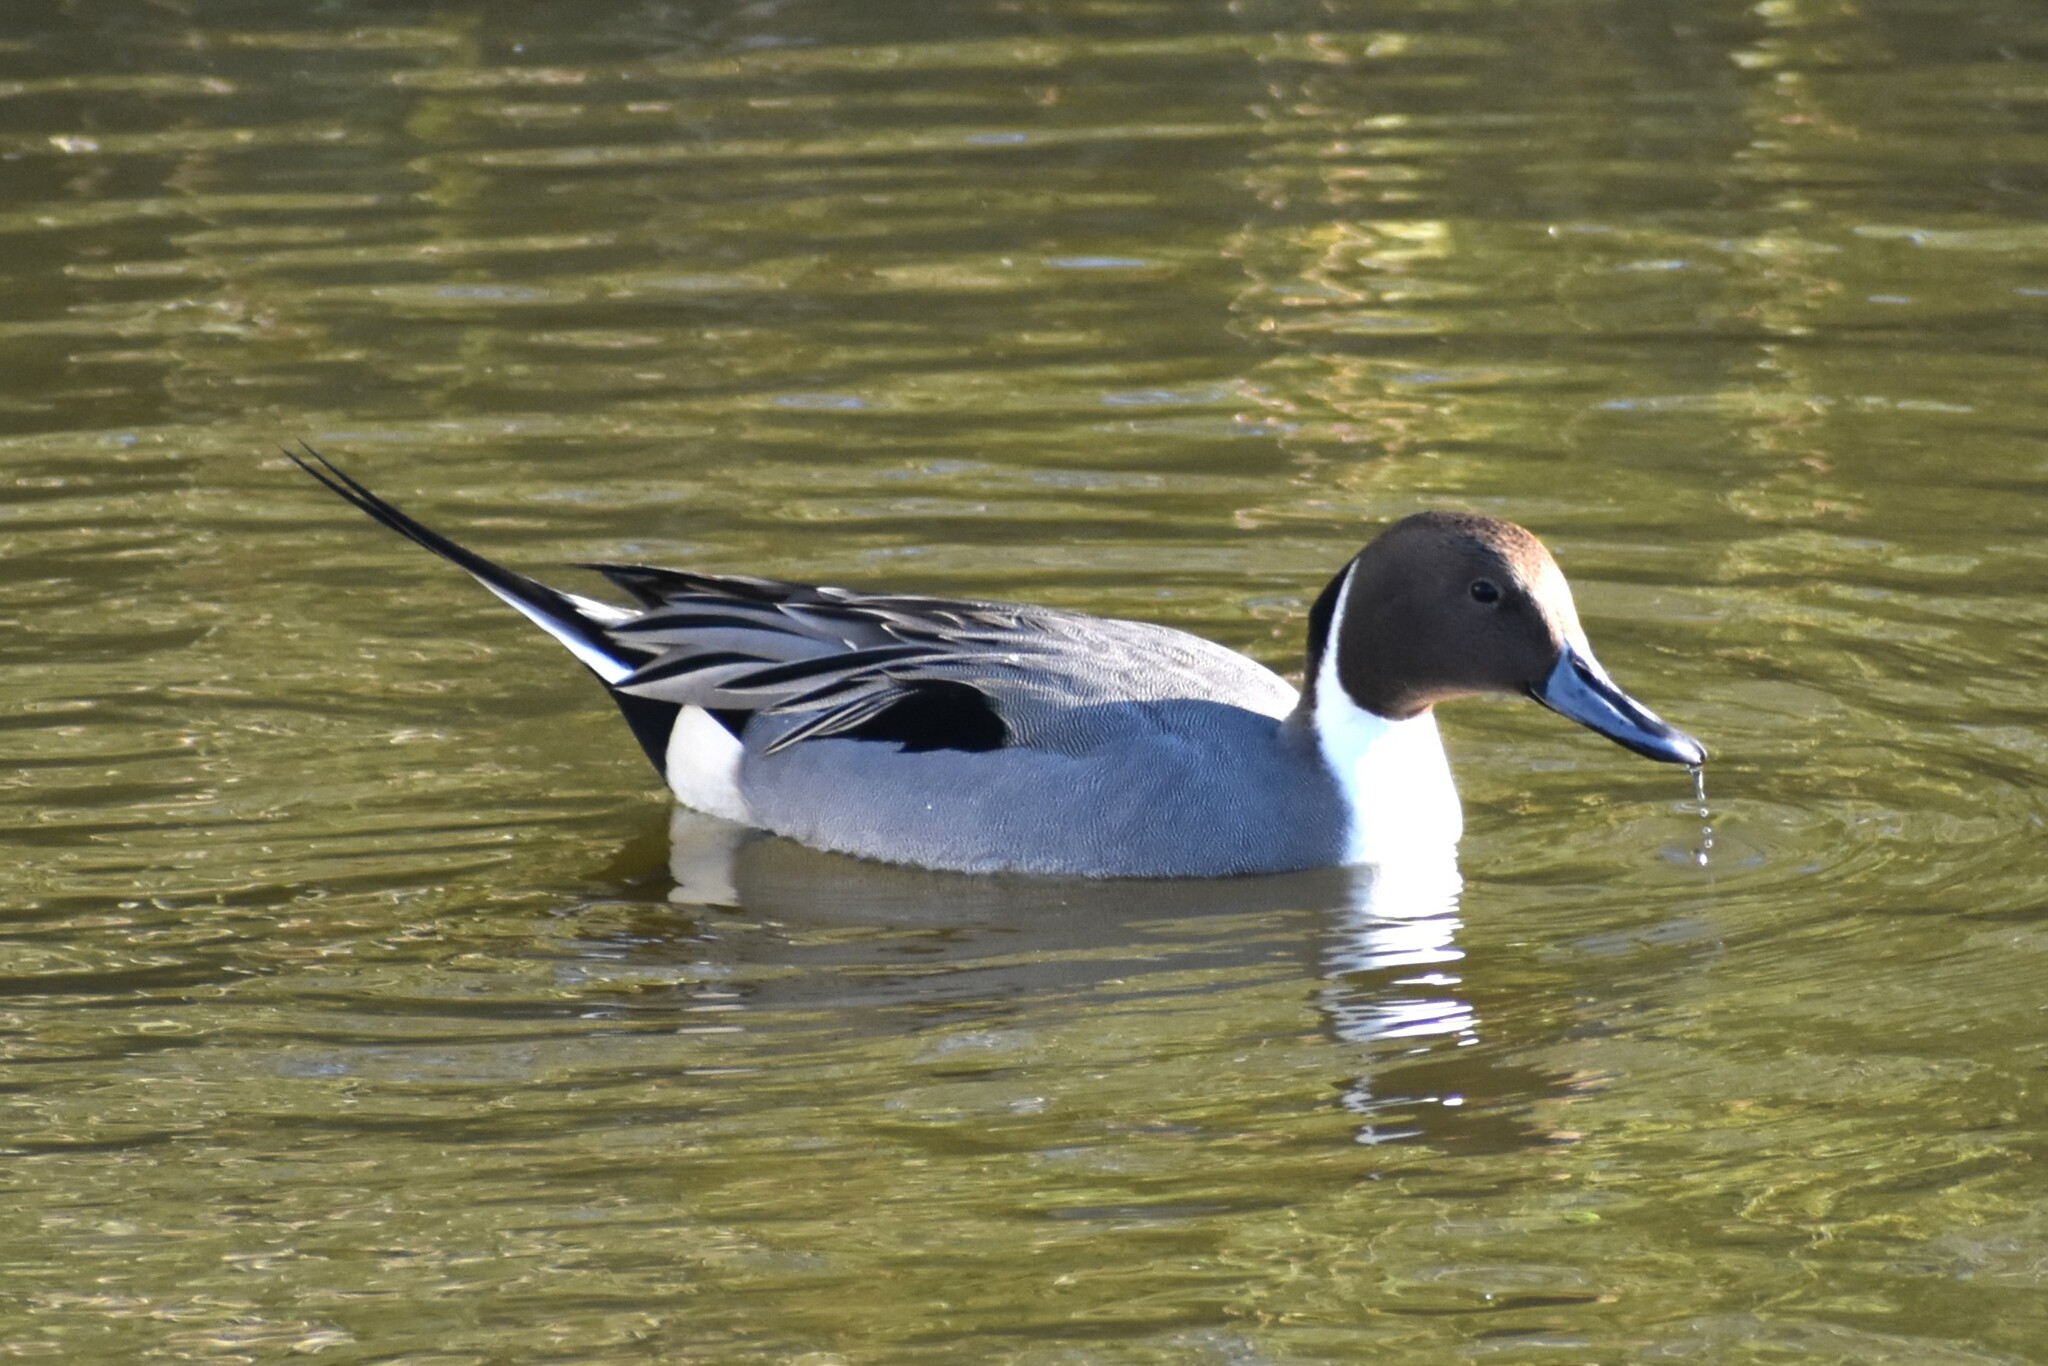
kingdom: Animalia
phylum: Chordata
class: Aves
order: Anseriformes
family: Anatidae
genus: Anas
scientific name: Anas acuta
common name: Northern pintail
